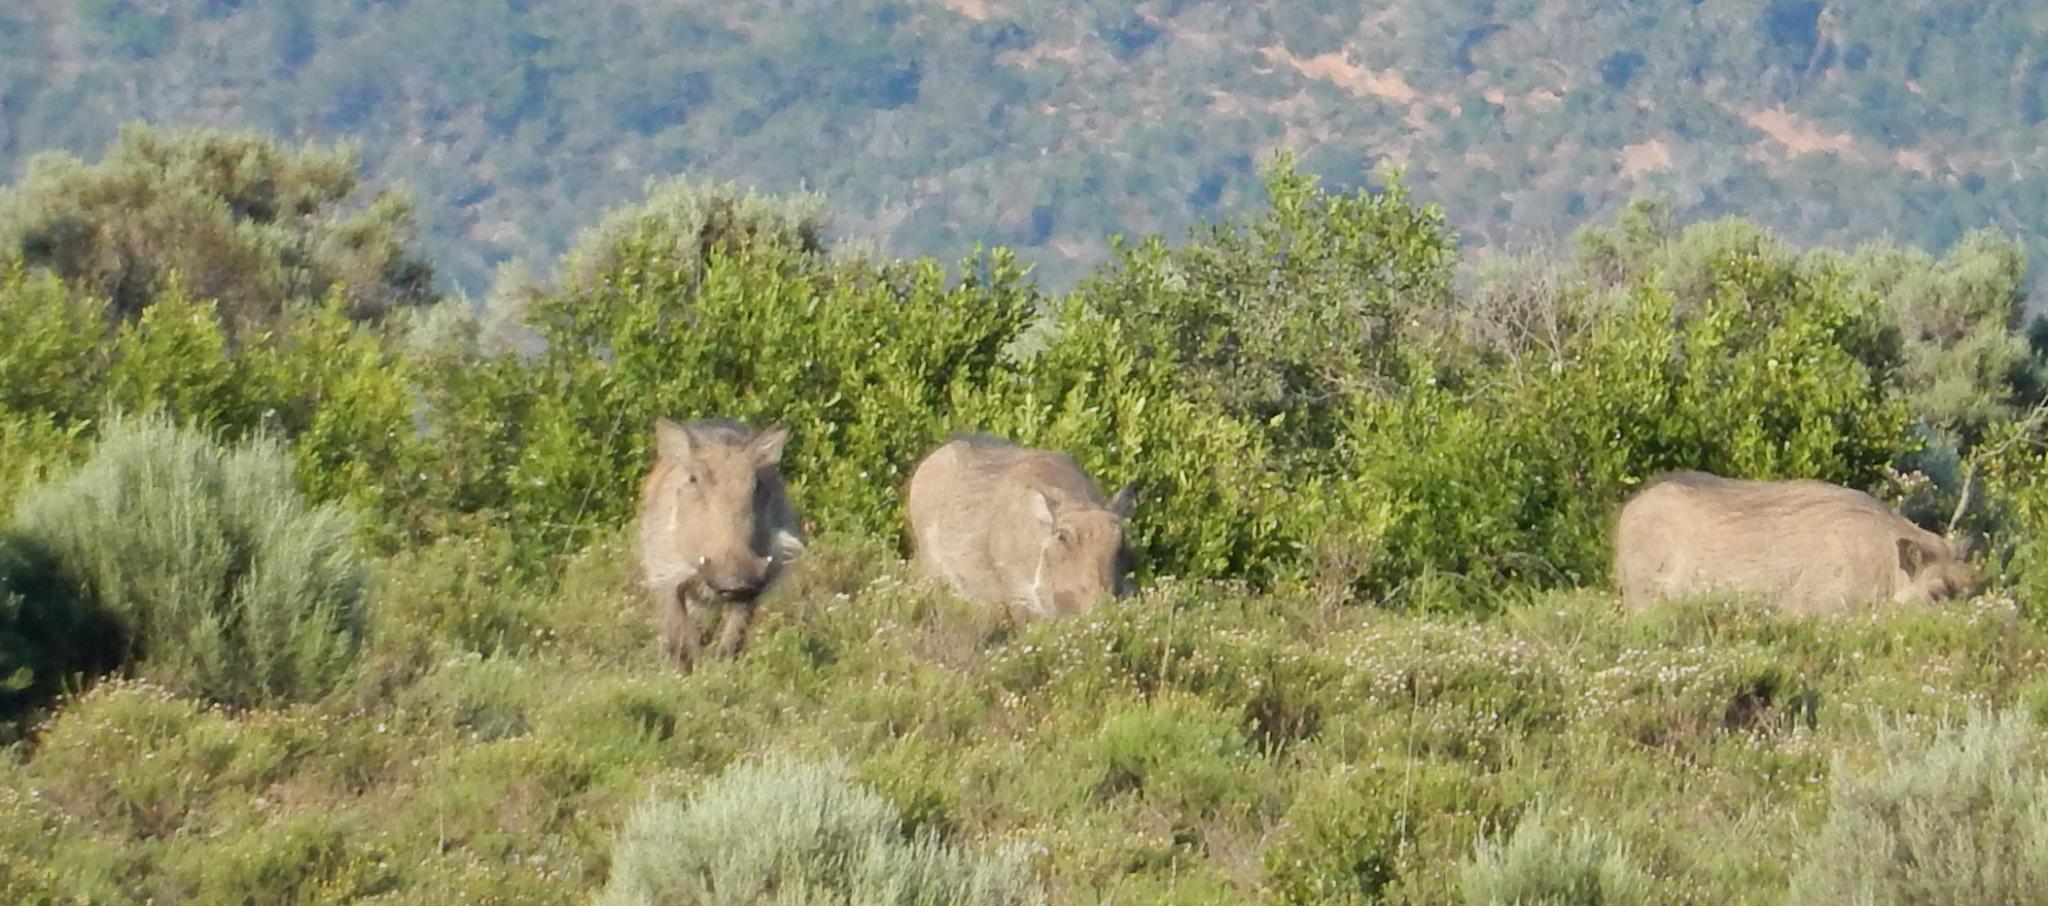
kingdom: Animalia
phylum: Chordata
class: Mammalia
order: Artiodactyla
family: Suidae
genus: Phacochoerus
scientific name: Phacochoerus africanus
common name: Common warthog
